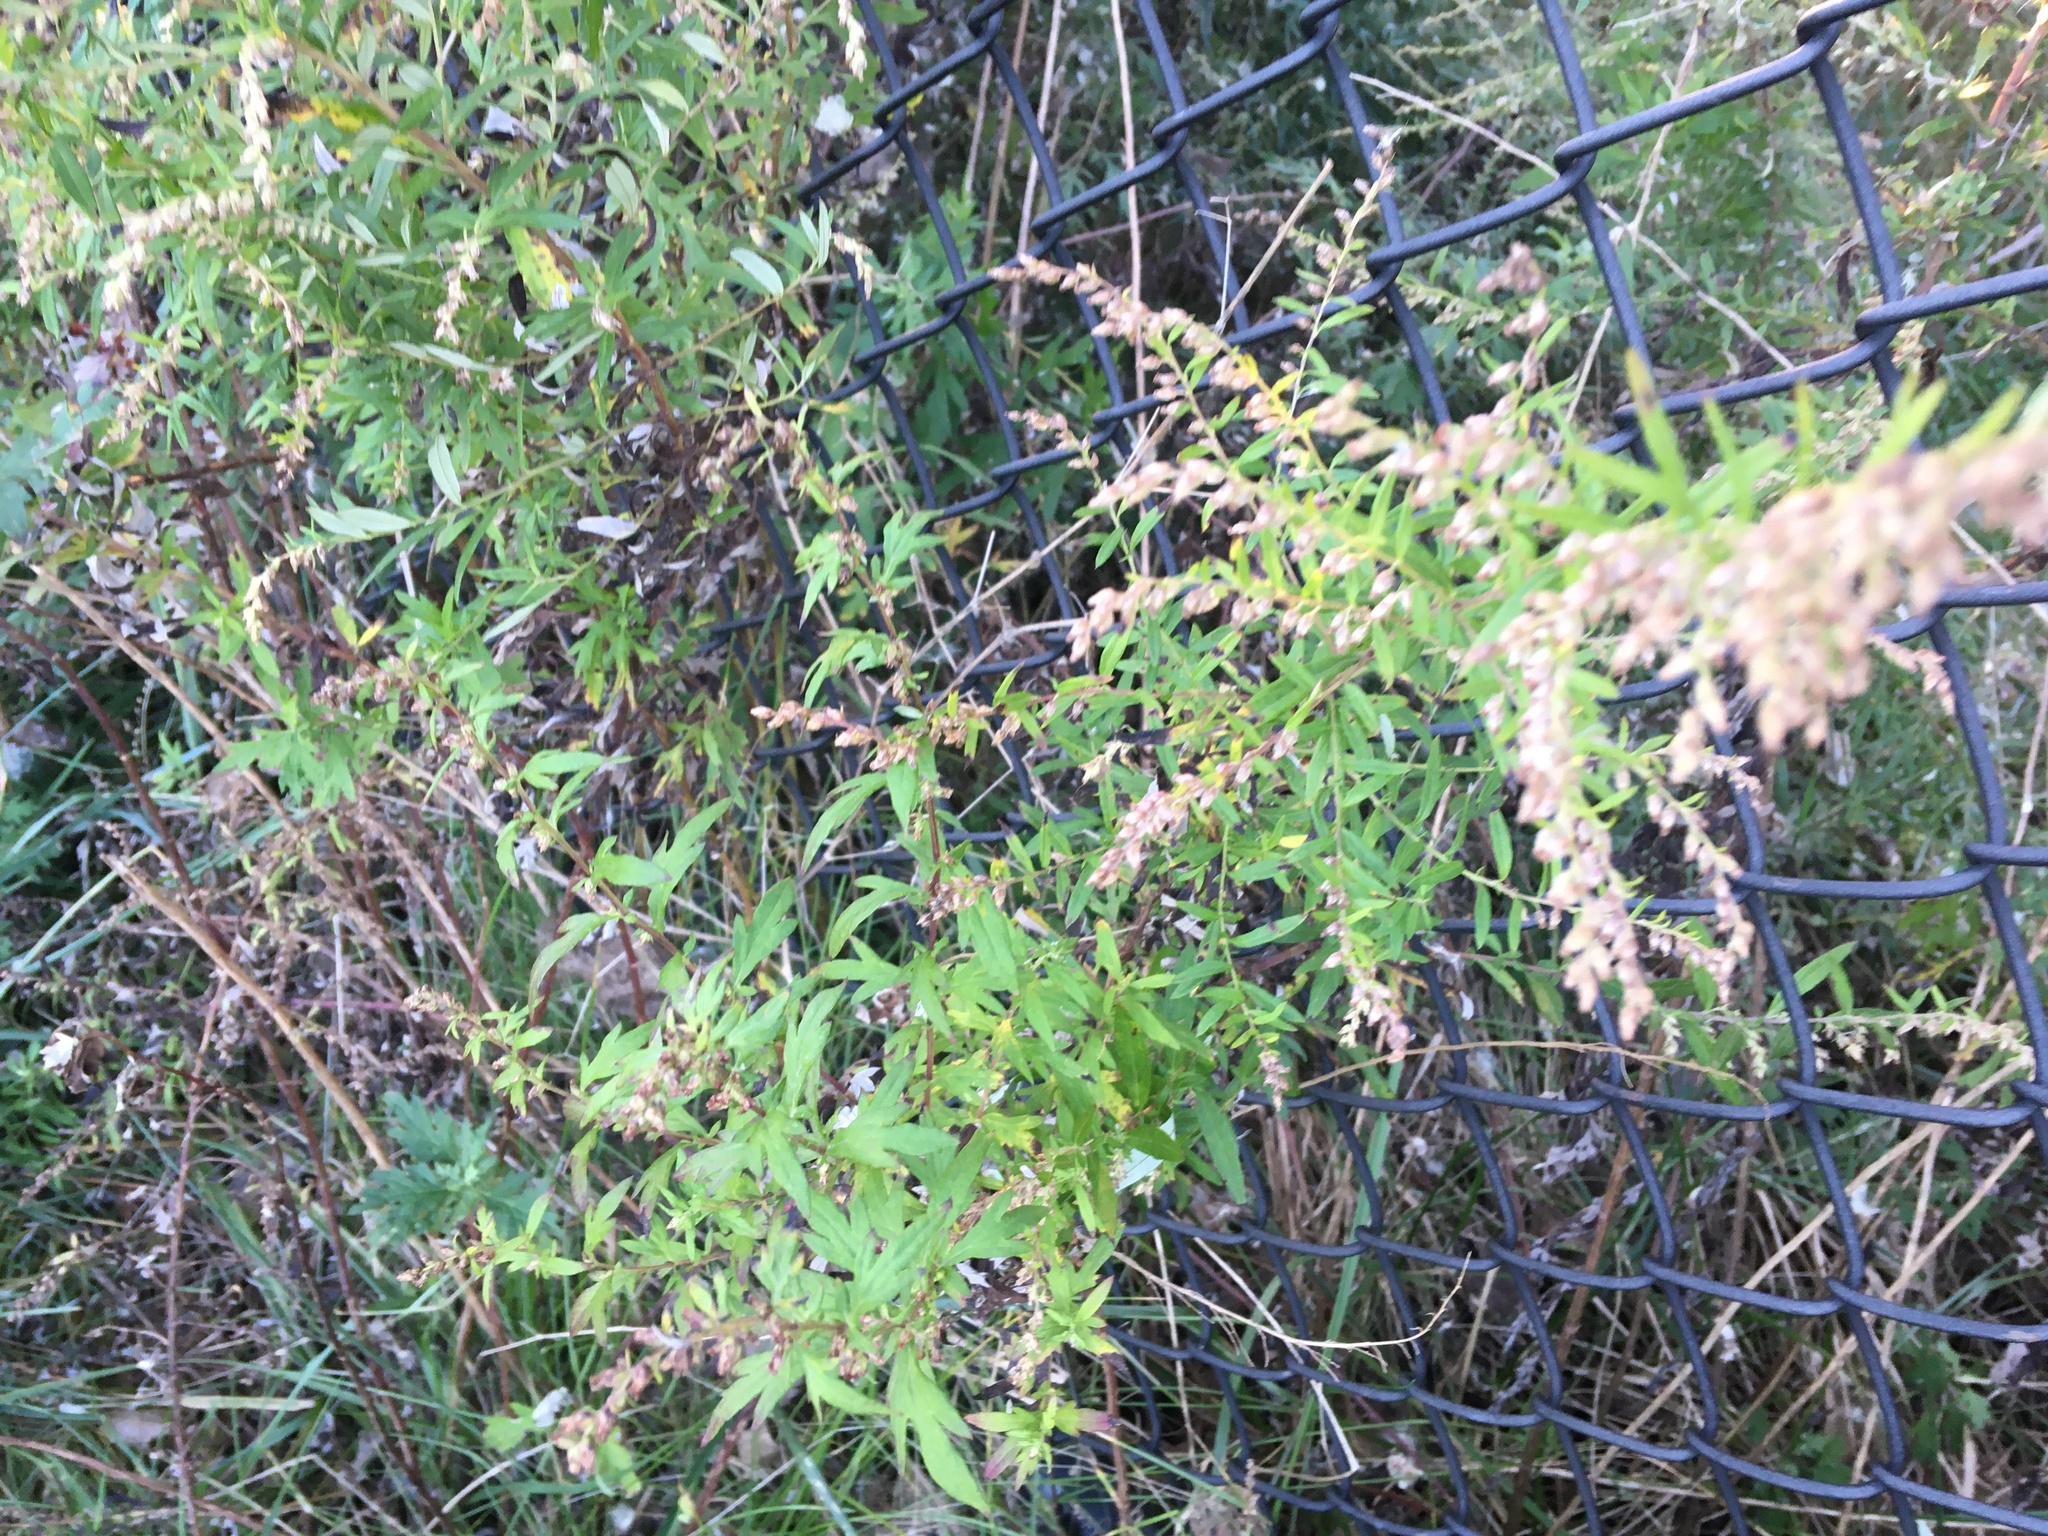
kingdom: Plantae
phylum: Tracheophyta
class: Magnoliopsida
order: Asterales
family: Asteraceae
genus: Artemisia
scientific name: Artemisia vulgaris
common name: Mugwort
